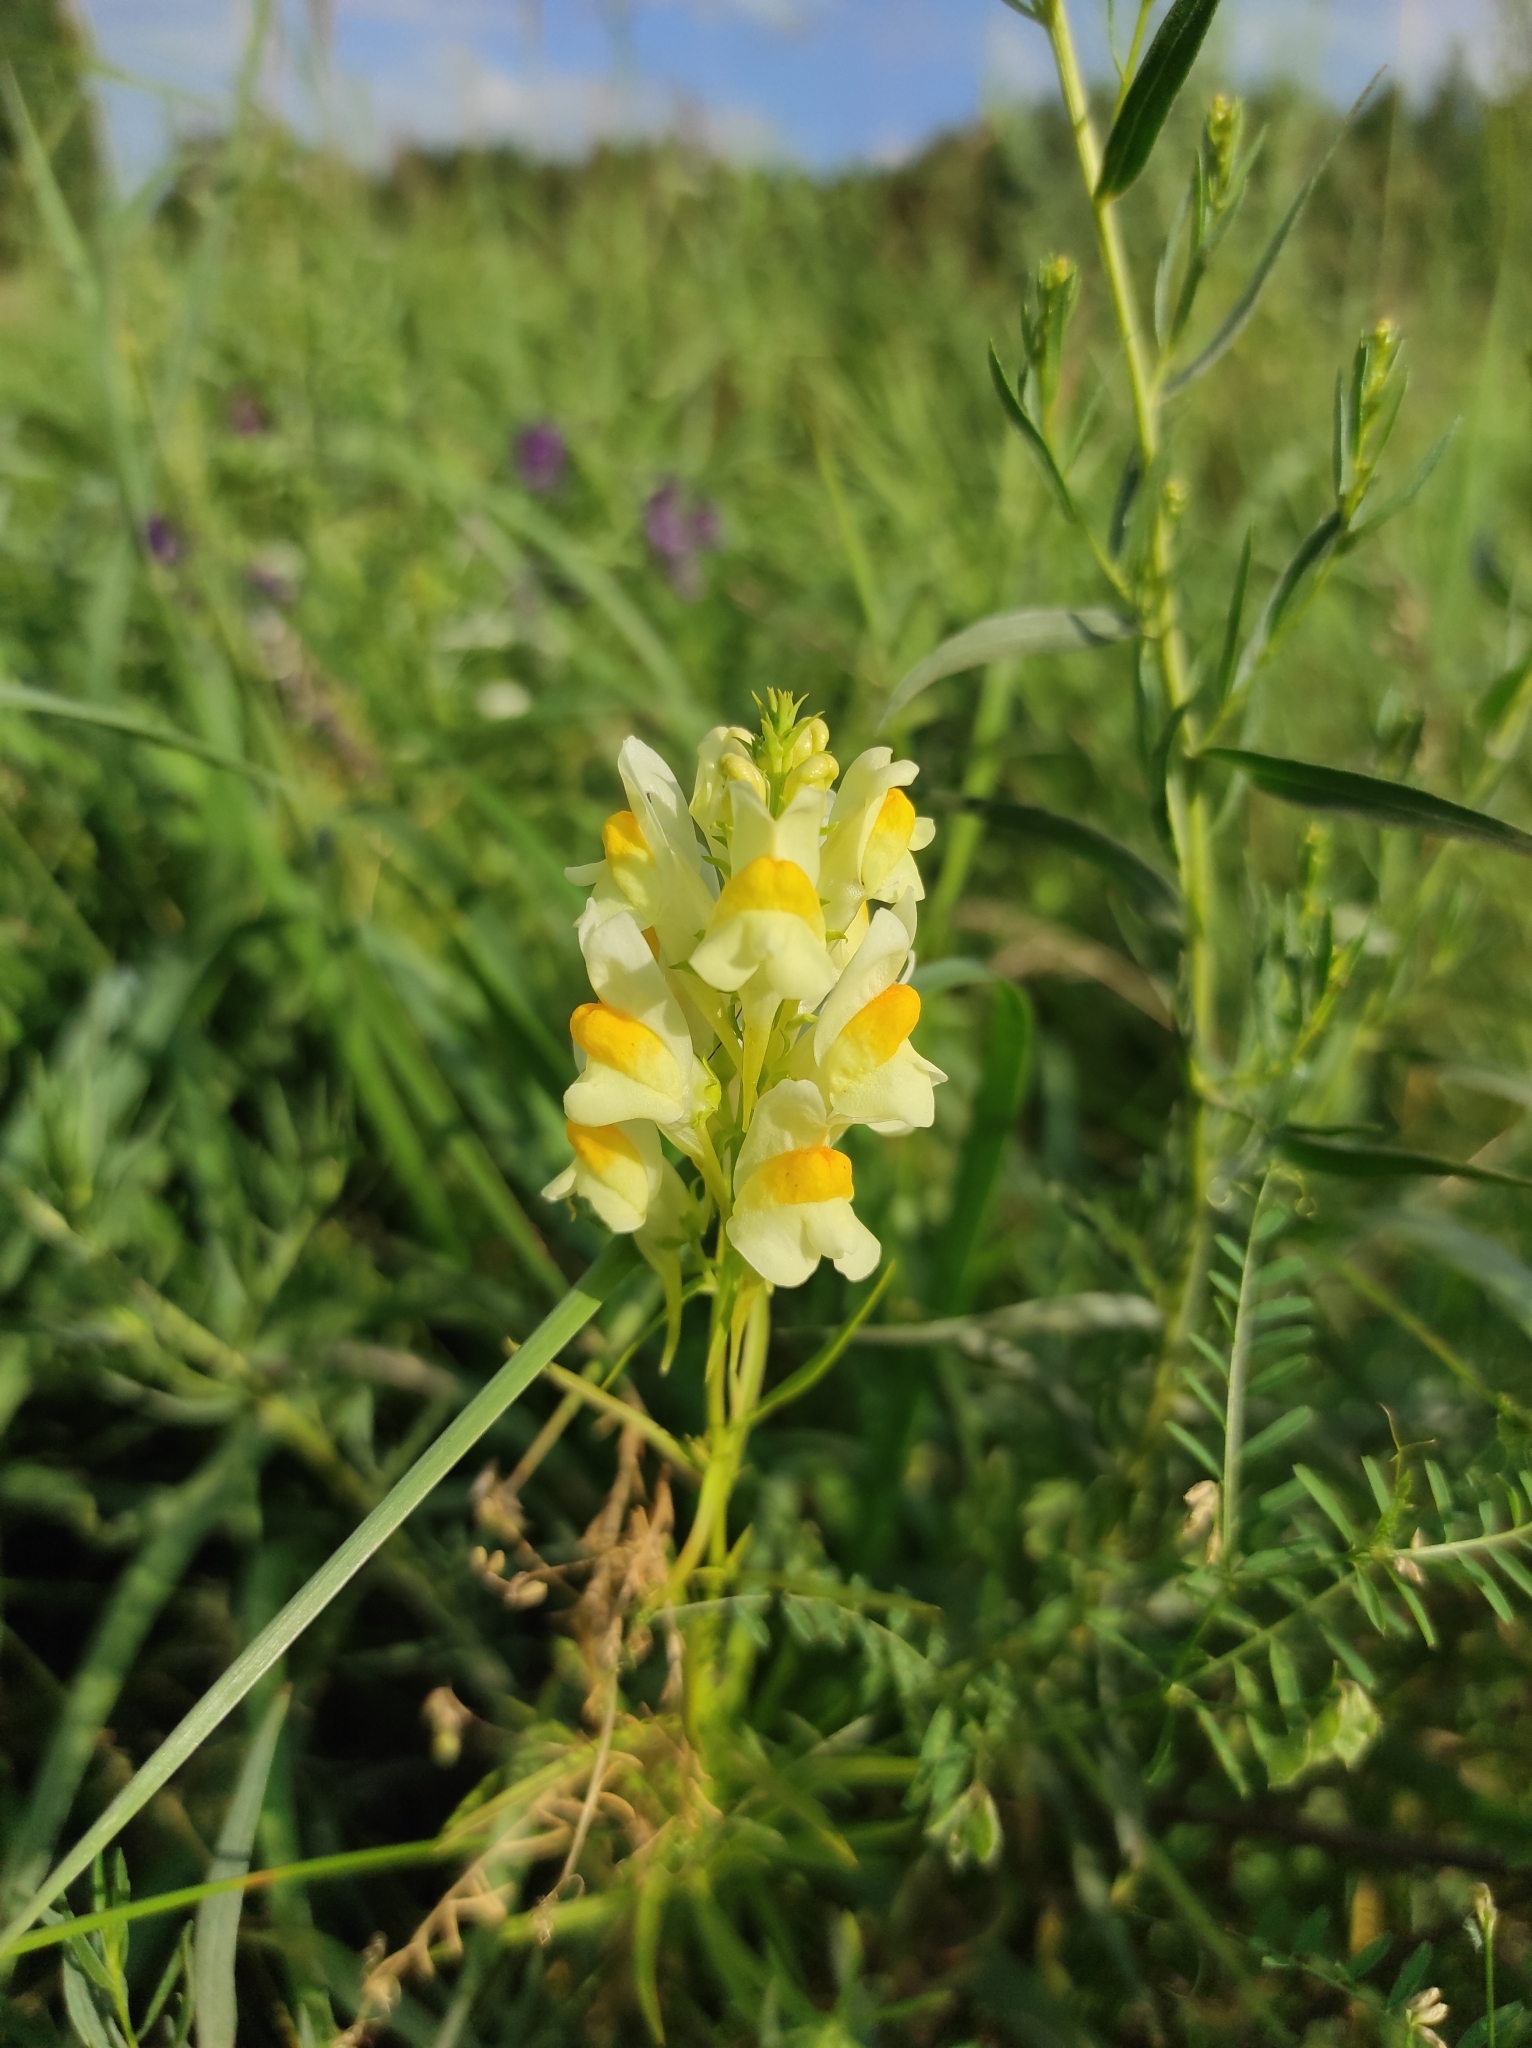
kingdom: Plantae
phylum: Tracheophyta
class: Magnoliopsida
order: Lamiales
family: Plantaginaceae
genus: Linaria
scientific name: Linaria vulgaris
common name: Butter and eggs
